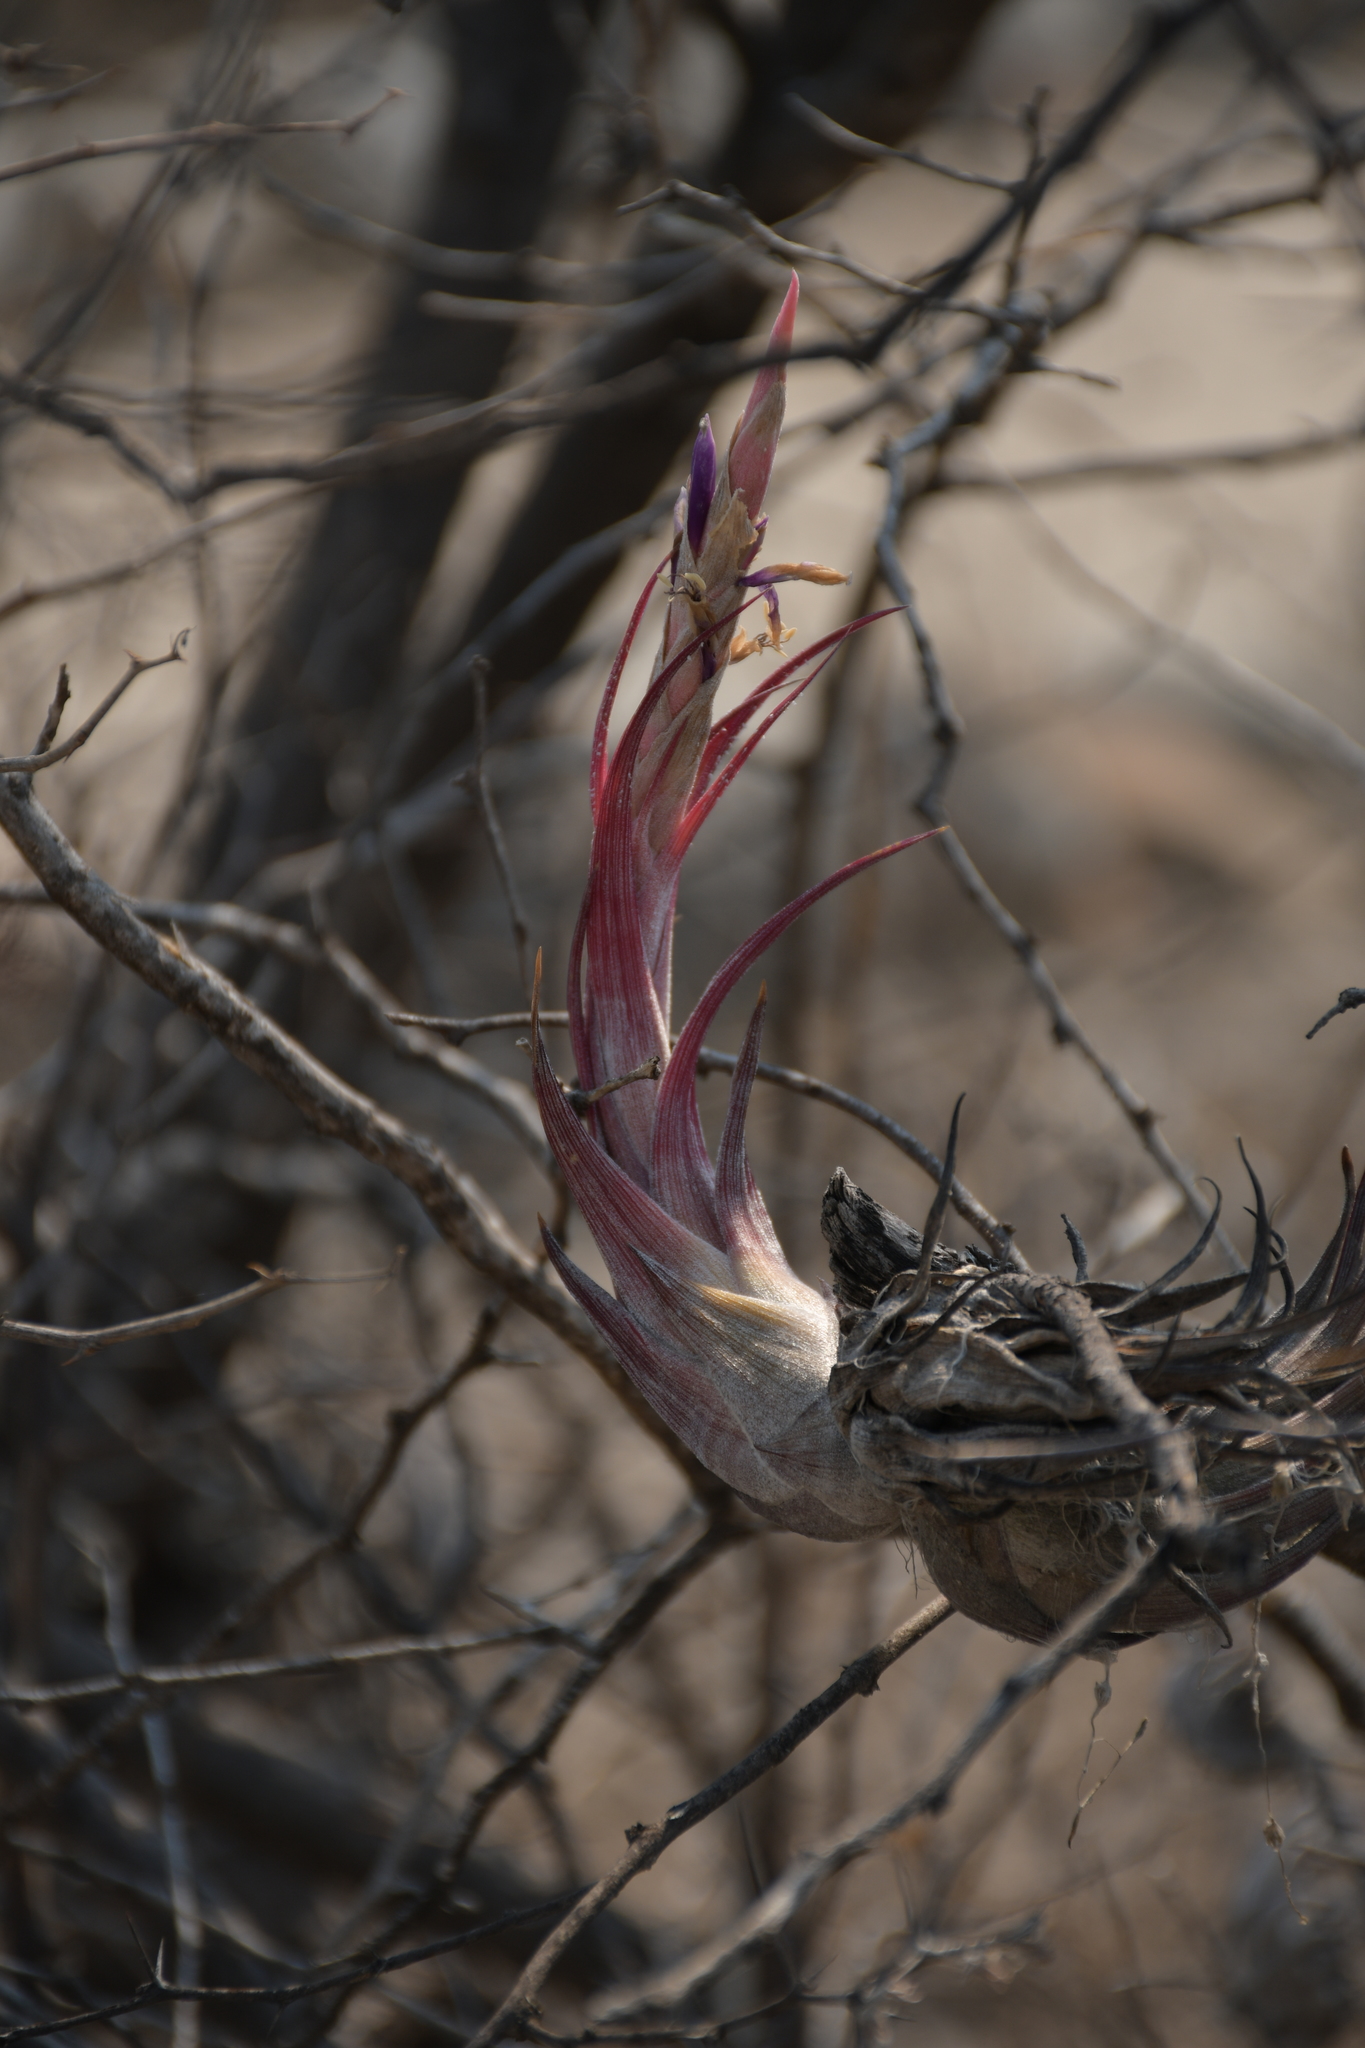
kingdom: Plantae
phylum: Tracheophyta
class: Liliopsida
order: Poales
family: Bromeliaceae
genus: Tillandsia
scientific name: Tillandsia circinnatioides
